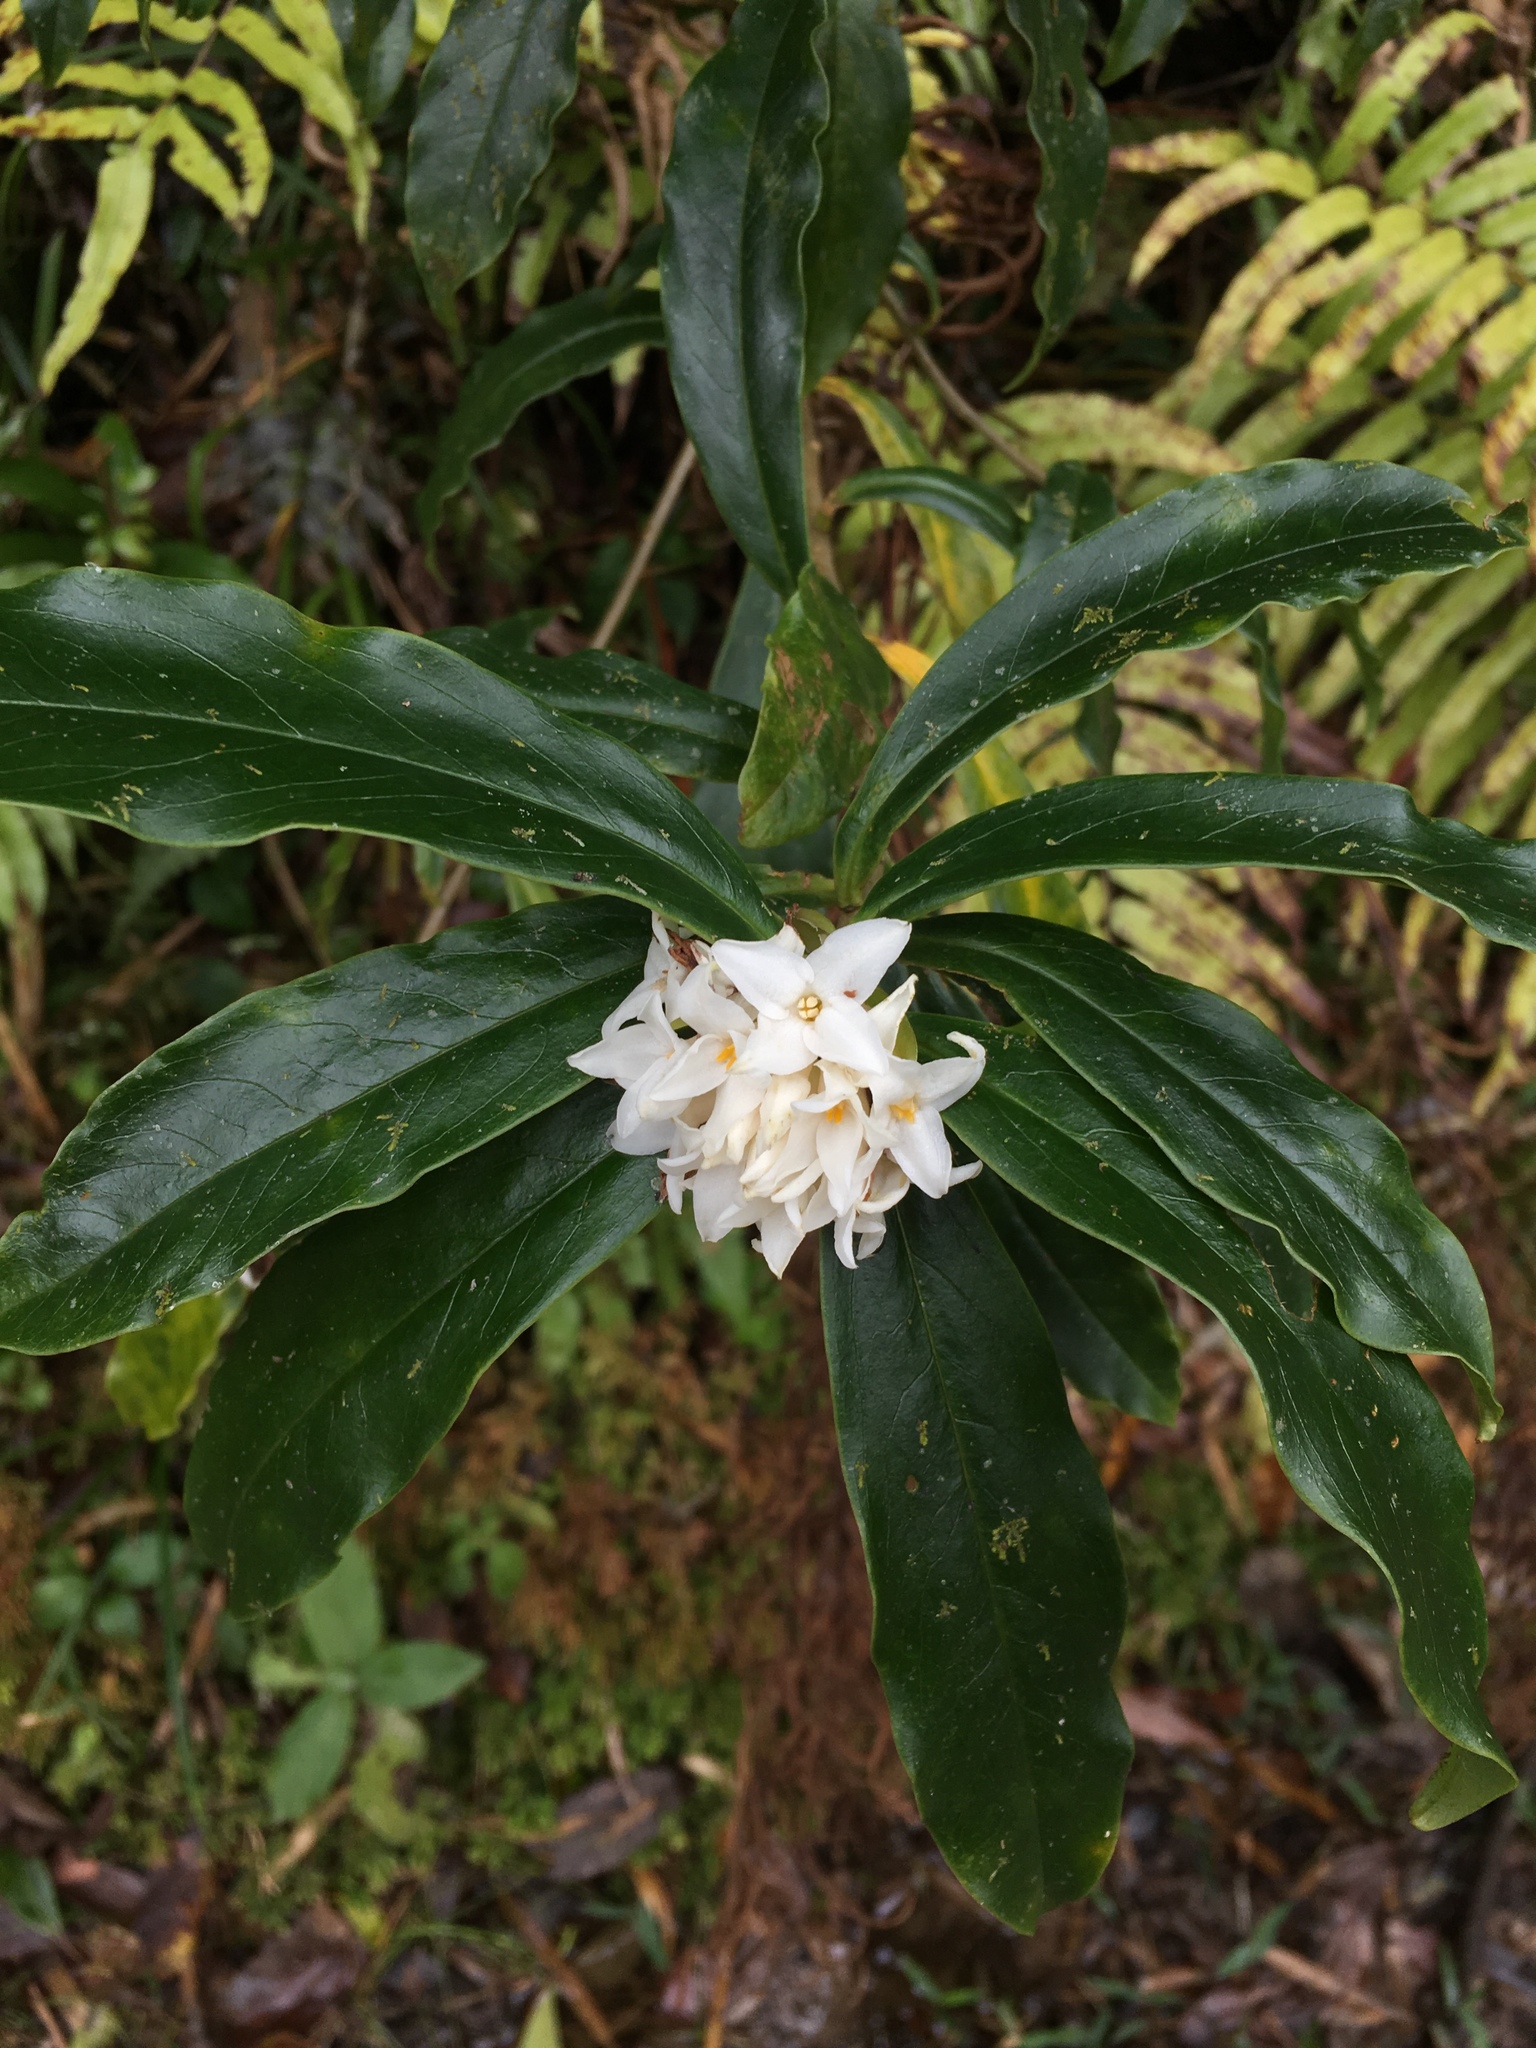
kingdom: Plantae
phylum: Tracheophyta
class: Magnoliopsida
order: Malvales
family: Thymelaeaceae
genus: Daphne
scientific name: Daphne bholua
